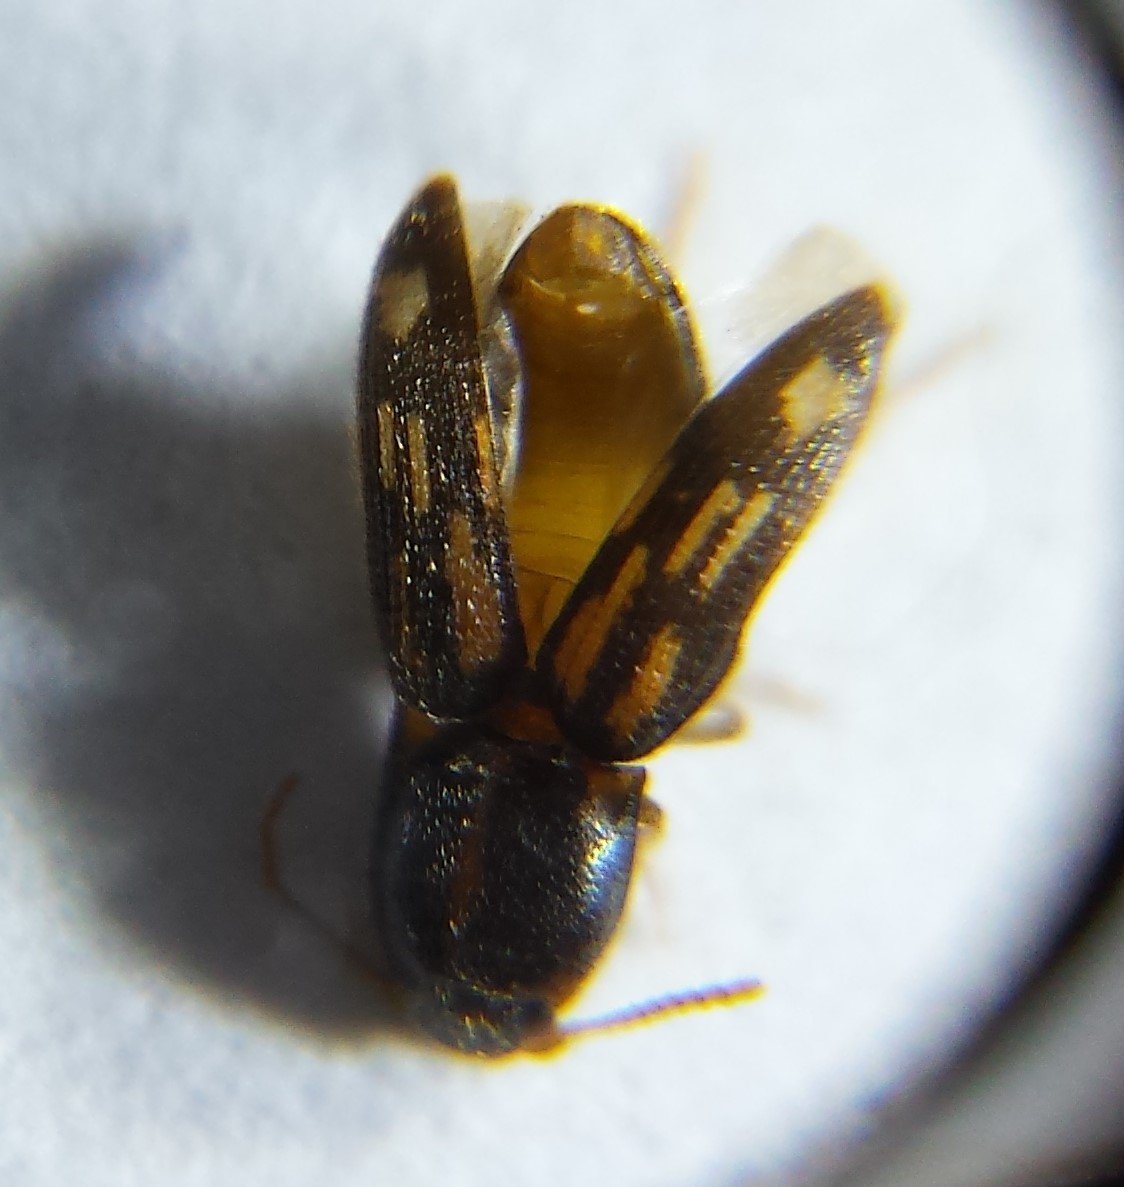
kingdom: Animalia
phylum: Arthropoda
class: Insecta
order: Coleoptera
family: Elateridae
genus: Monocrepidius
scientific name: Monocrepidius bellus
